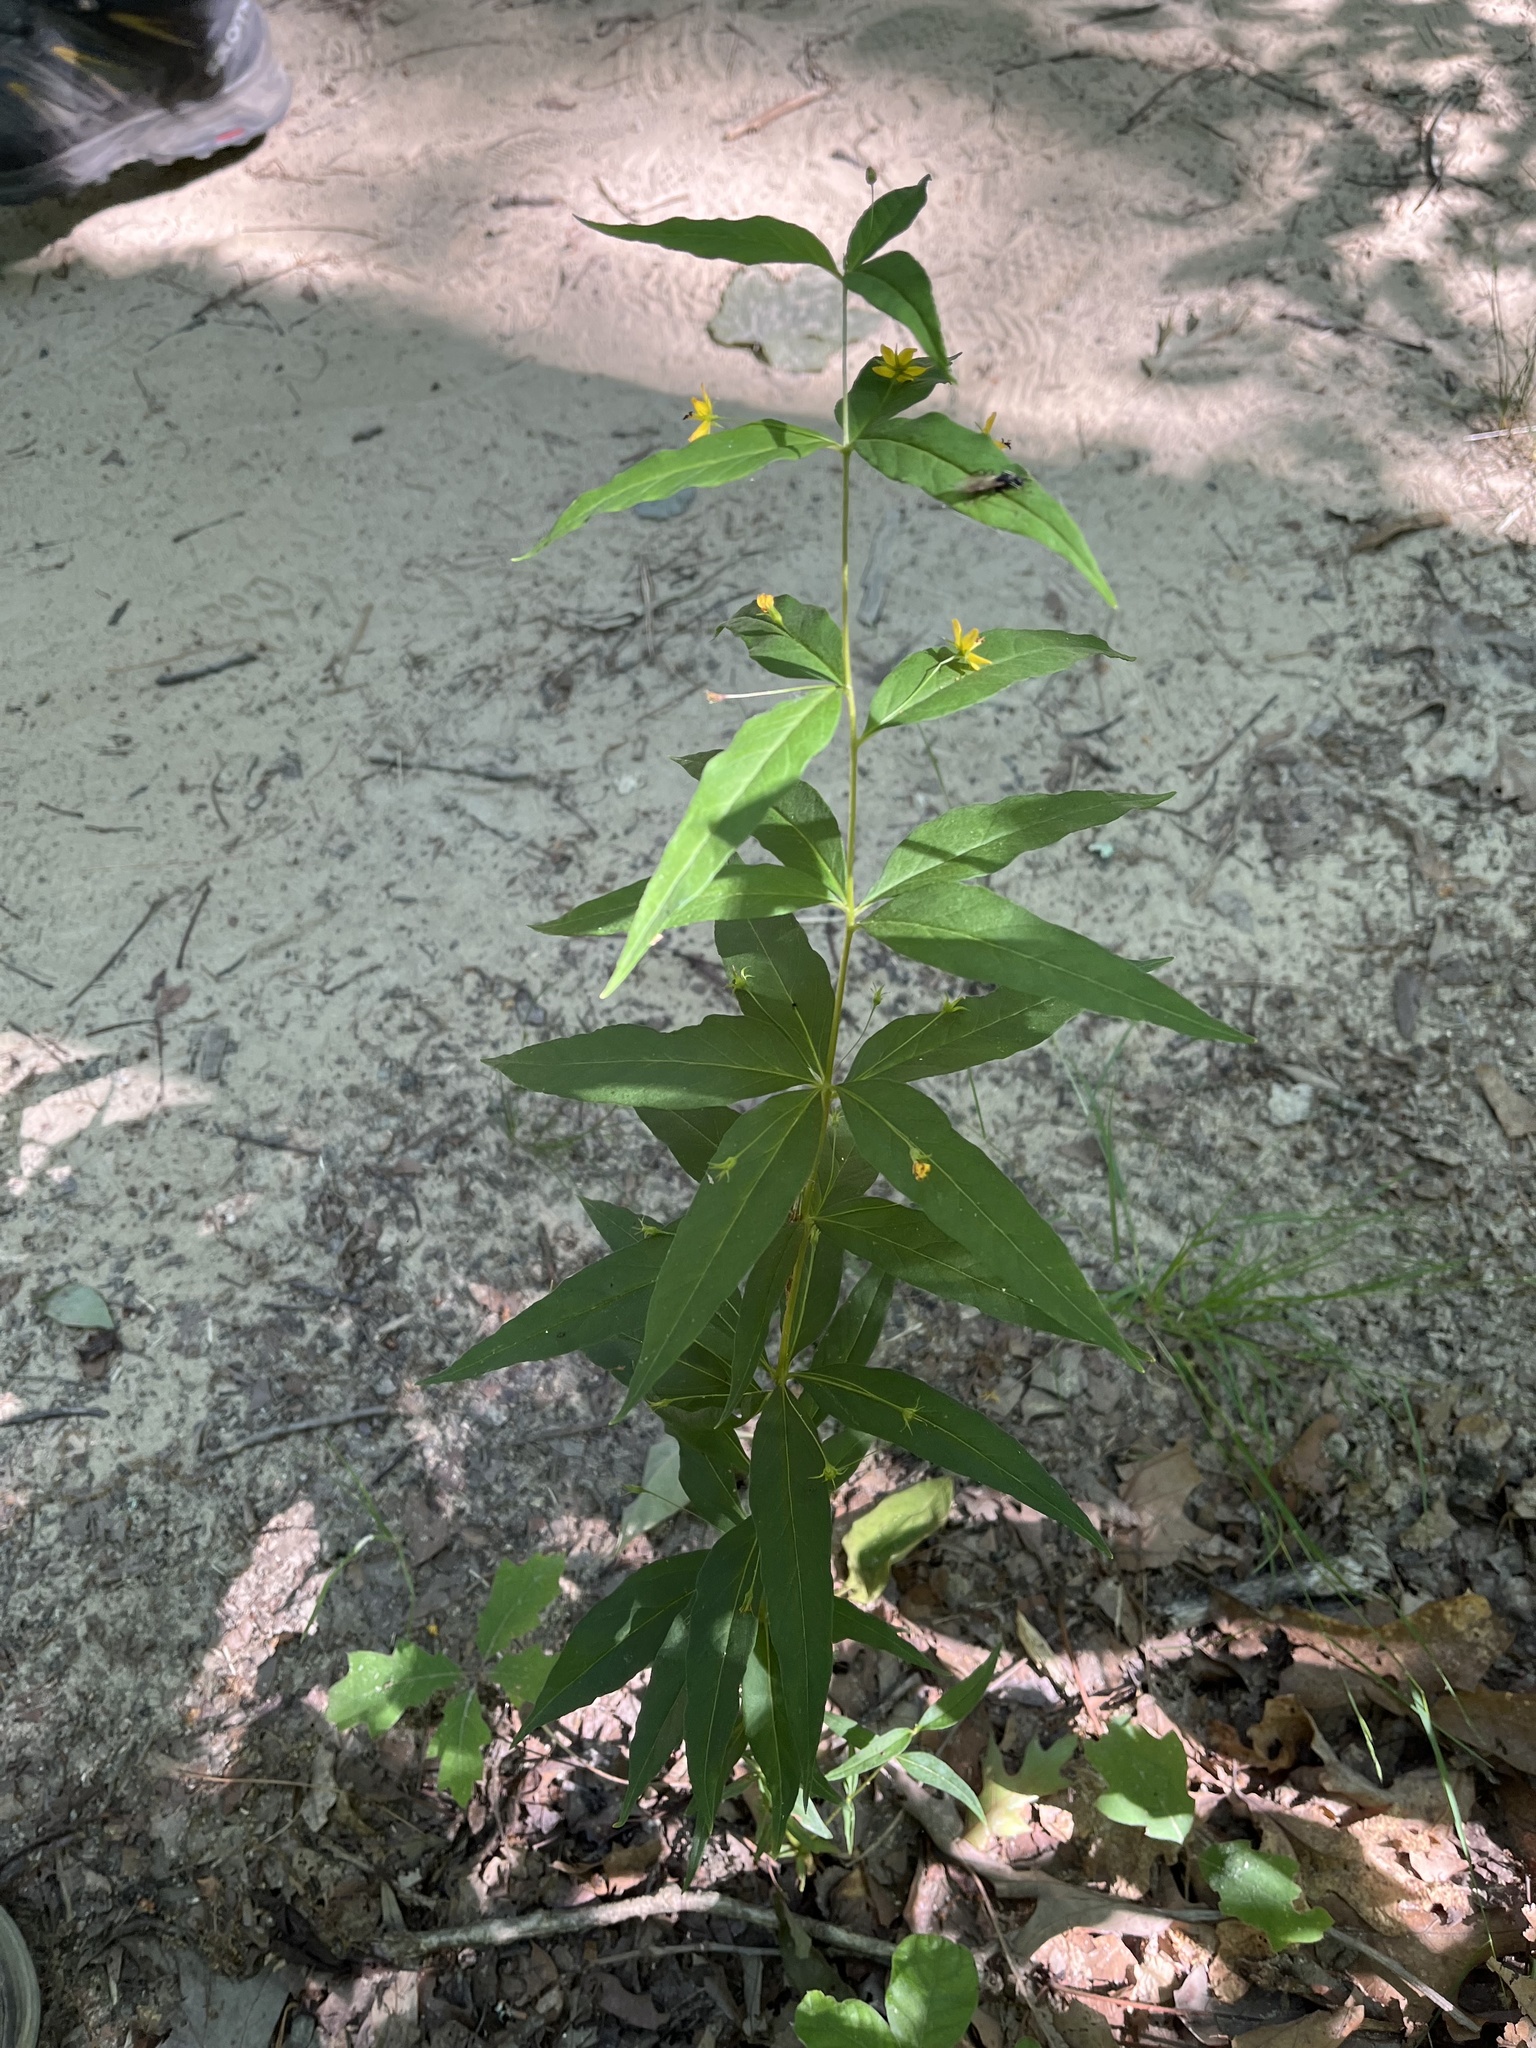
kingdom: Plantae
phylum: Tracheophyta
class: Magnoliopsida
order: Ericales
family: Primulaceae
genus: Lysimachia
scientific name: Lysimachia quadrifolia
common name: Whorled loosestrife
